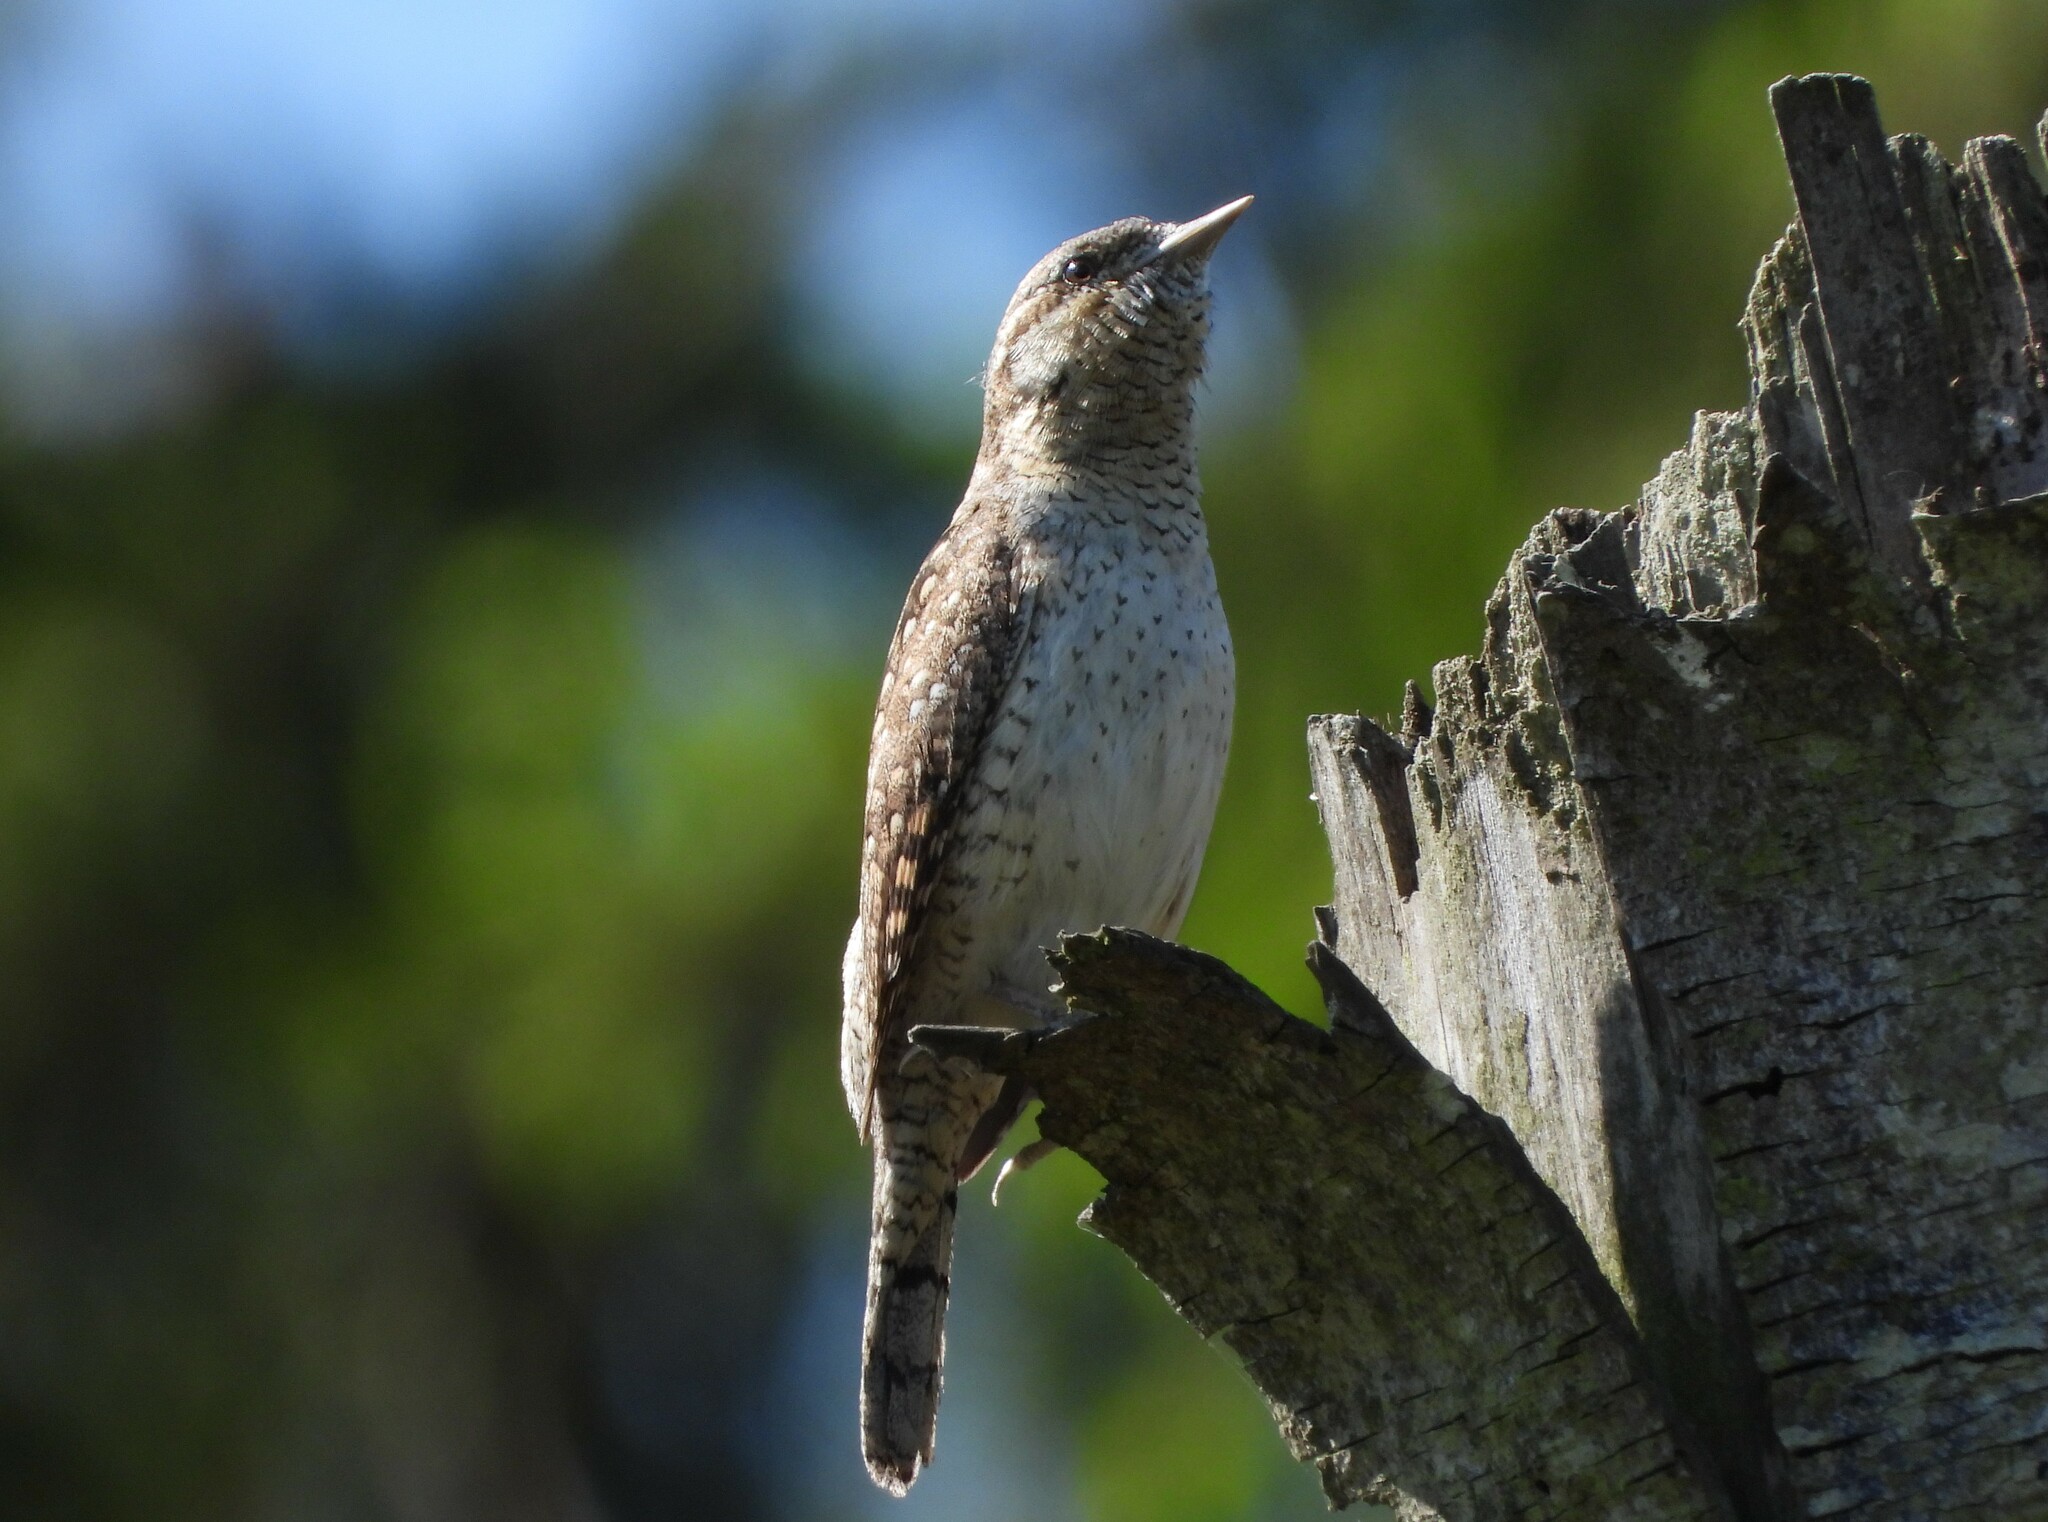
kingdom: Animalia
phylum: Chordata
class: Aves
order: Piciformes
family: Picidae
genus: Jynx
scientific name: Jynx torquilla
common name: Eurasian wryneck
